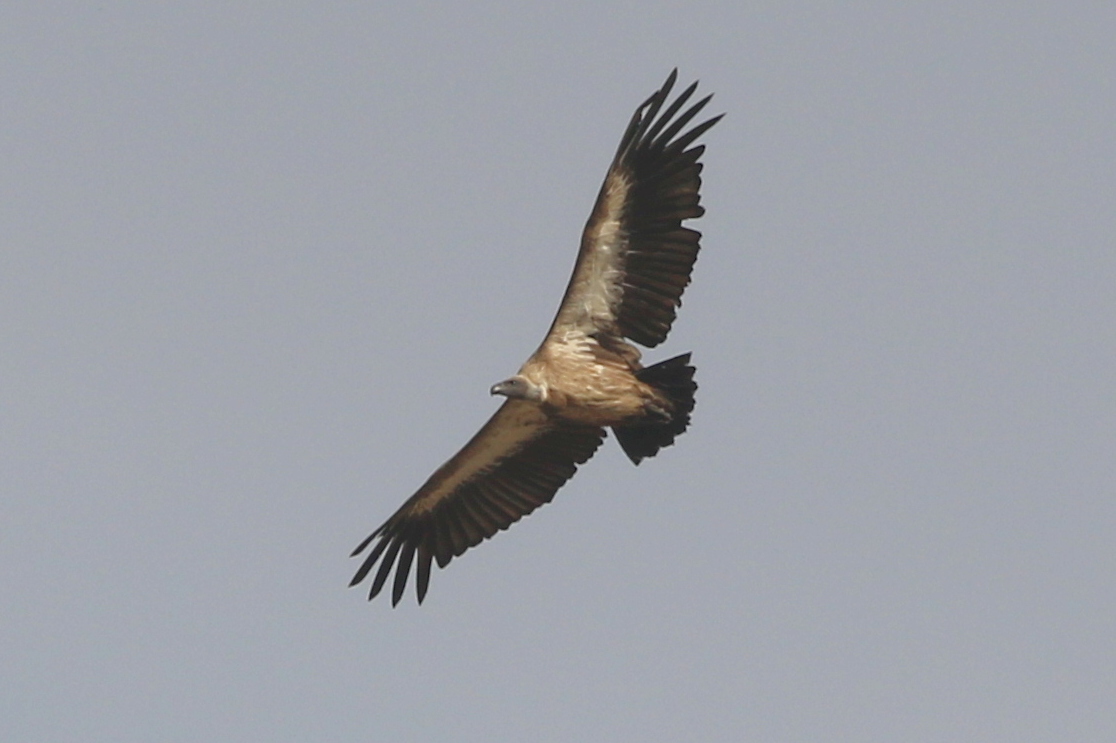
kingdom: Animalia
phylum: Chordata
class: Aves
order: Accipitriformes
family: Accipitridae
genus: Gyps
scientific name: Gyps africanus
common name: White-backed vulture
